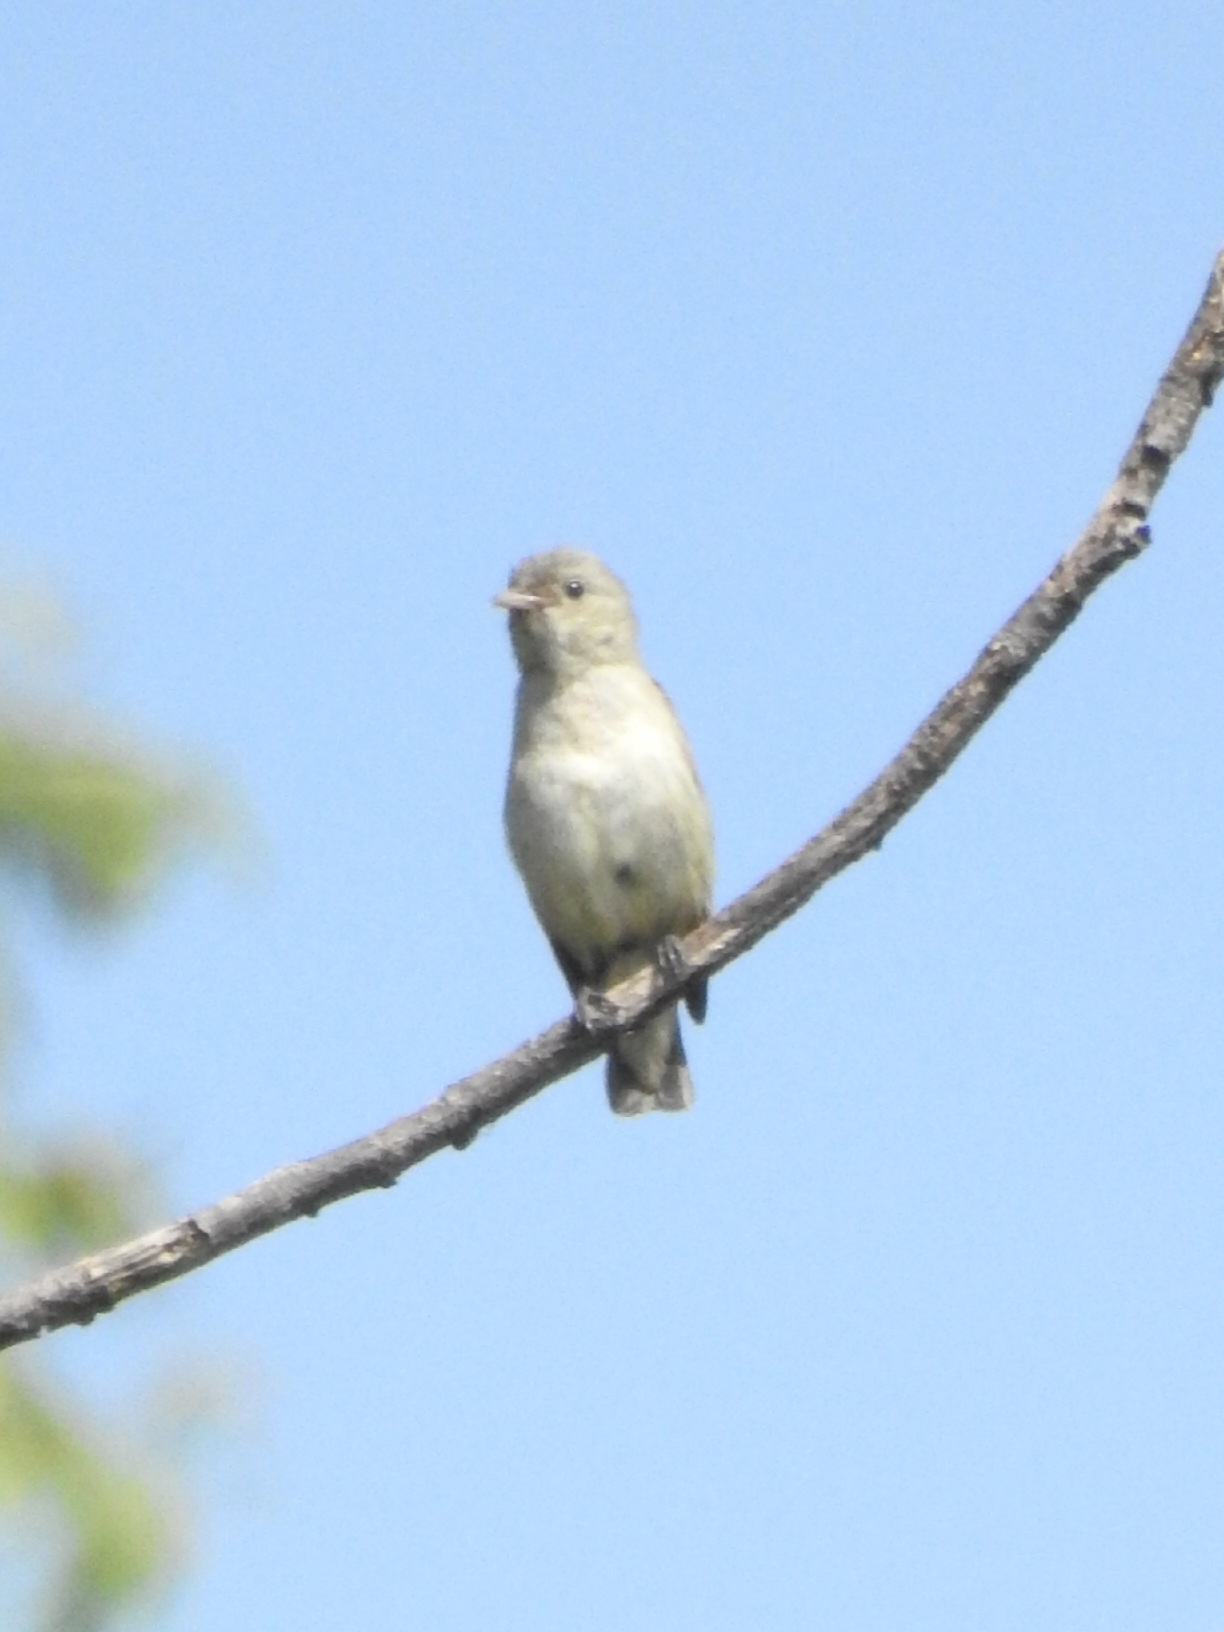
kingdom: Animalia
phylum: Chordata
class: Aves
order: Passeriformes
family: Dicaeidae
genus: Dicaeum
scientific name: Dicaeum erythrorhynchos
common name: Pale-billed flowerpecker
